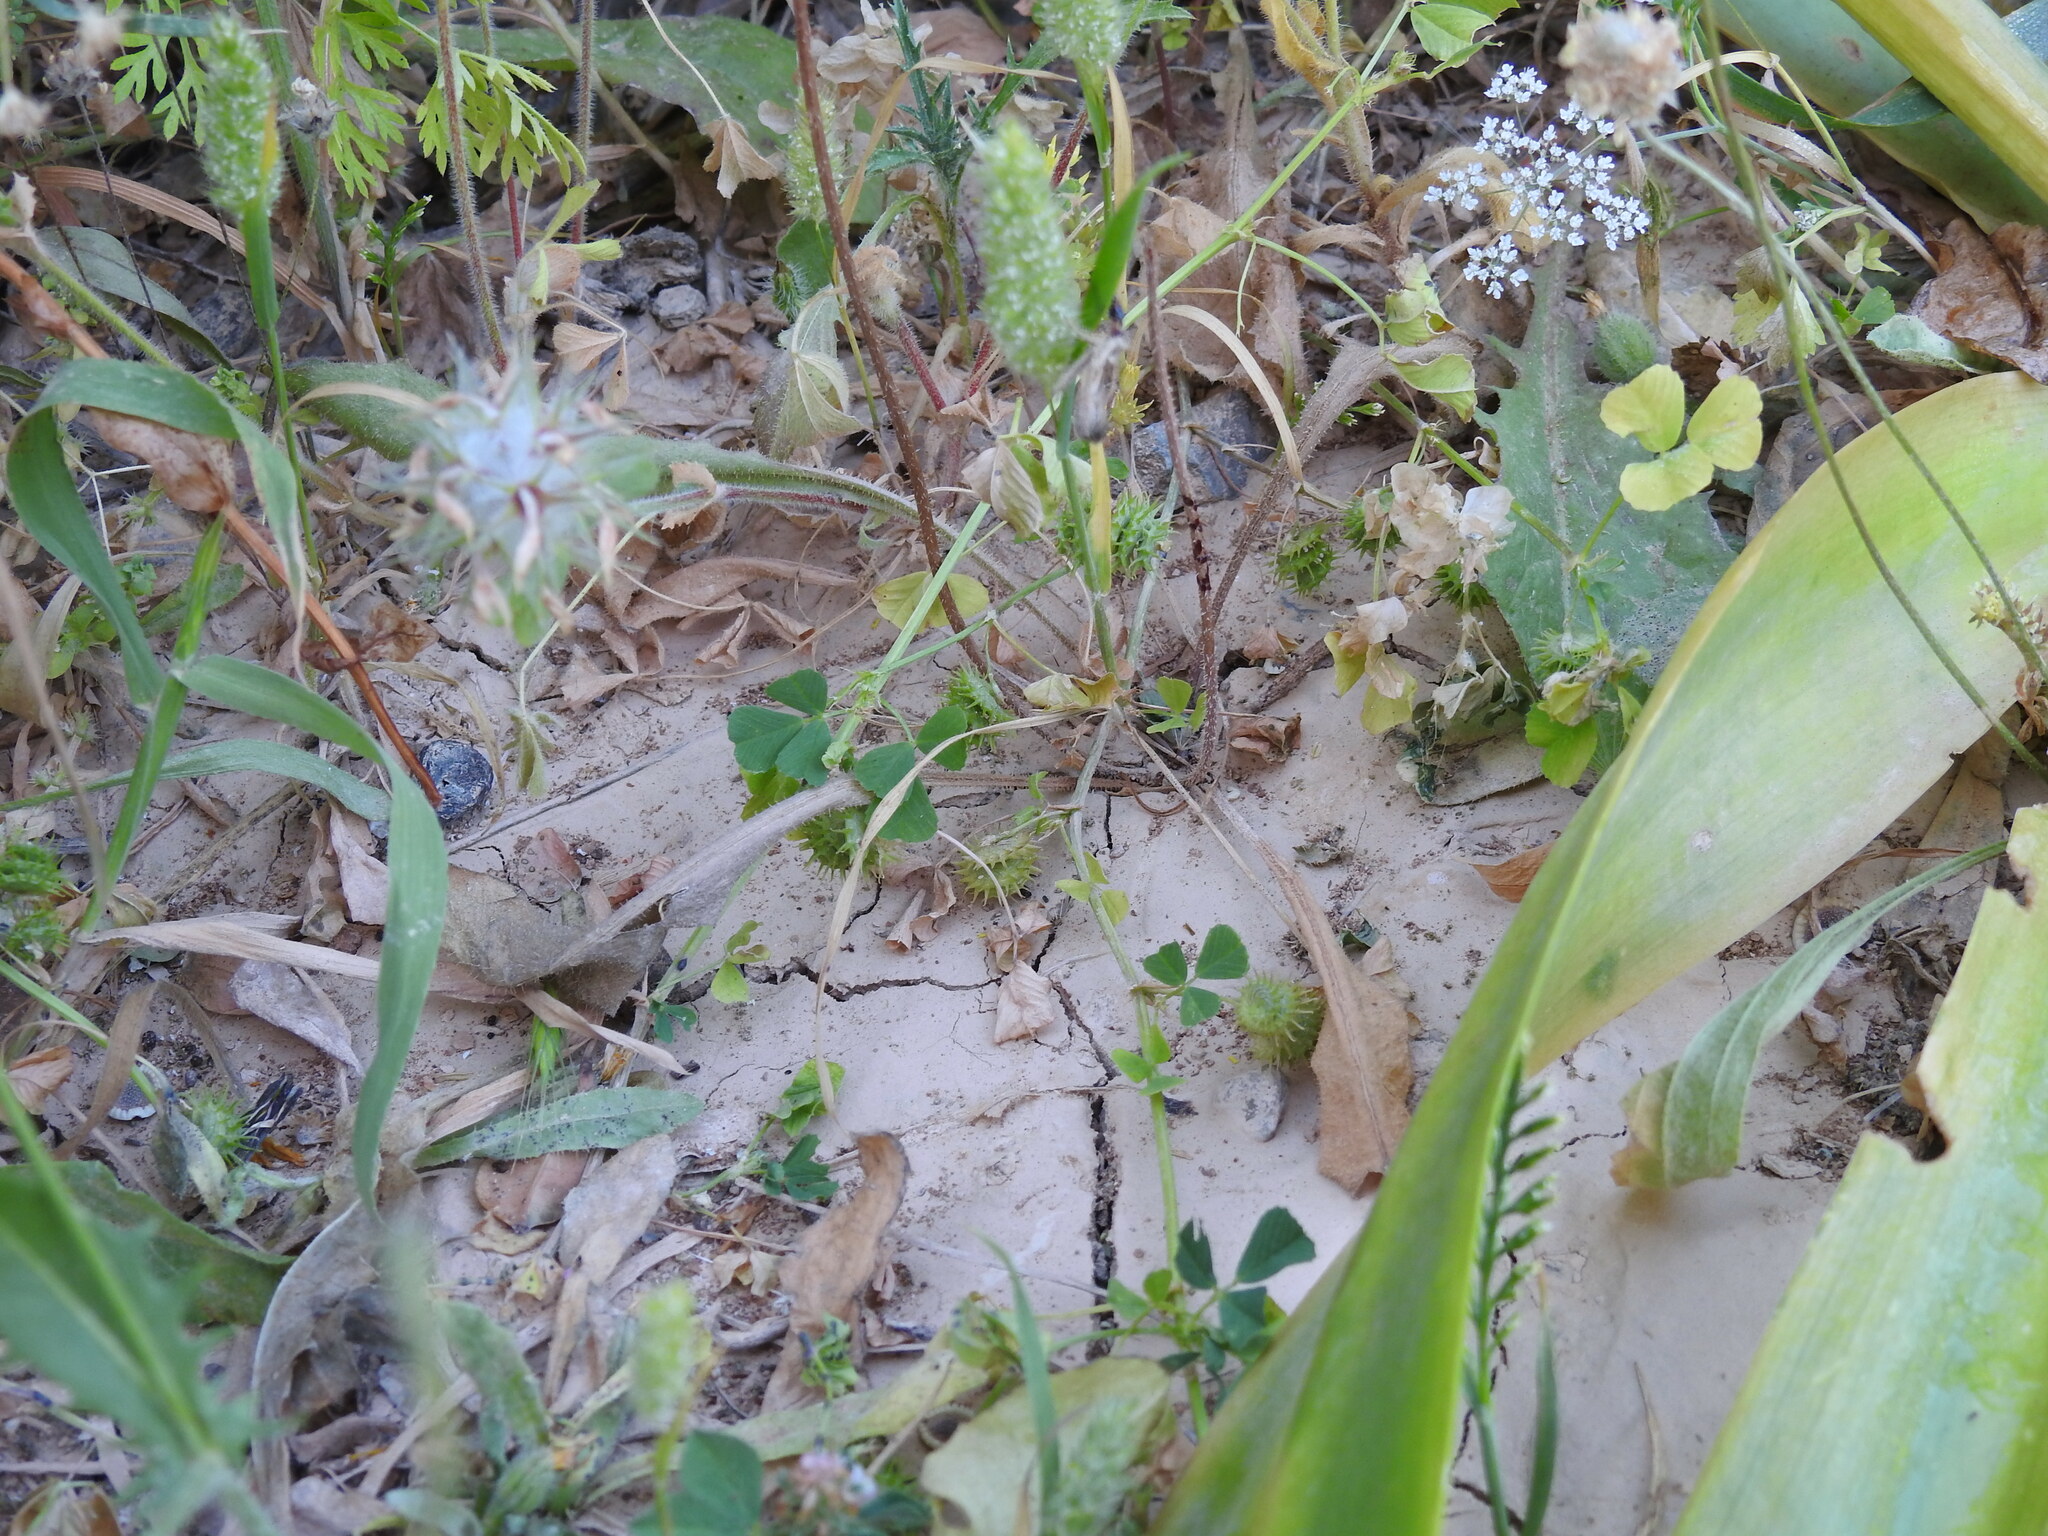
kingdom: Plantae
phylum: Tracheophyta
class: Magnoliopsida
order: Fabales
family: Fabaceae
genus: Medicago
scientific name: Medicago polymorpha
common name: Burclover
